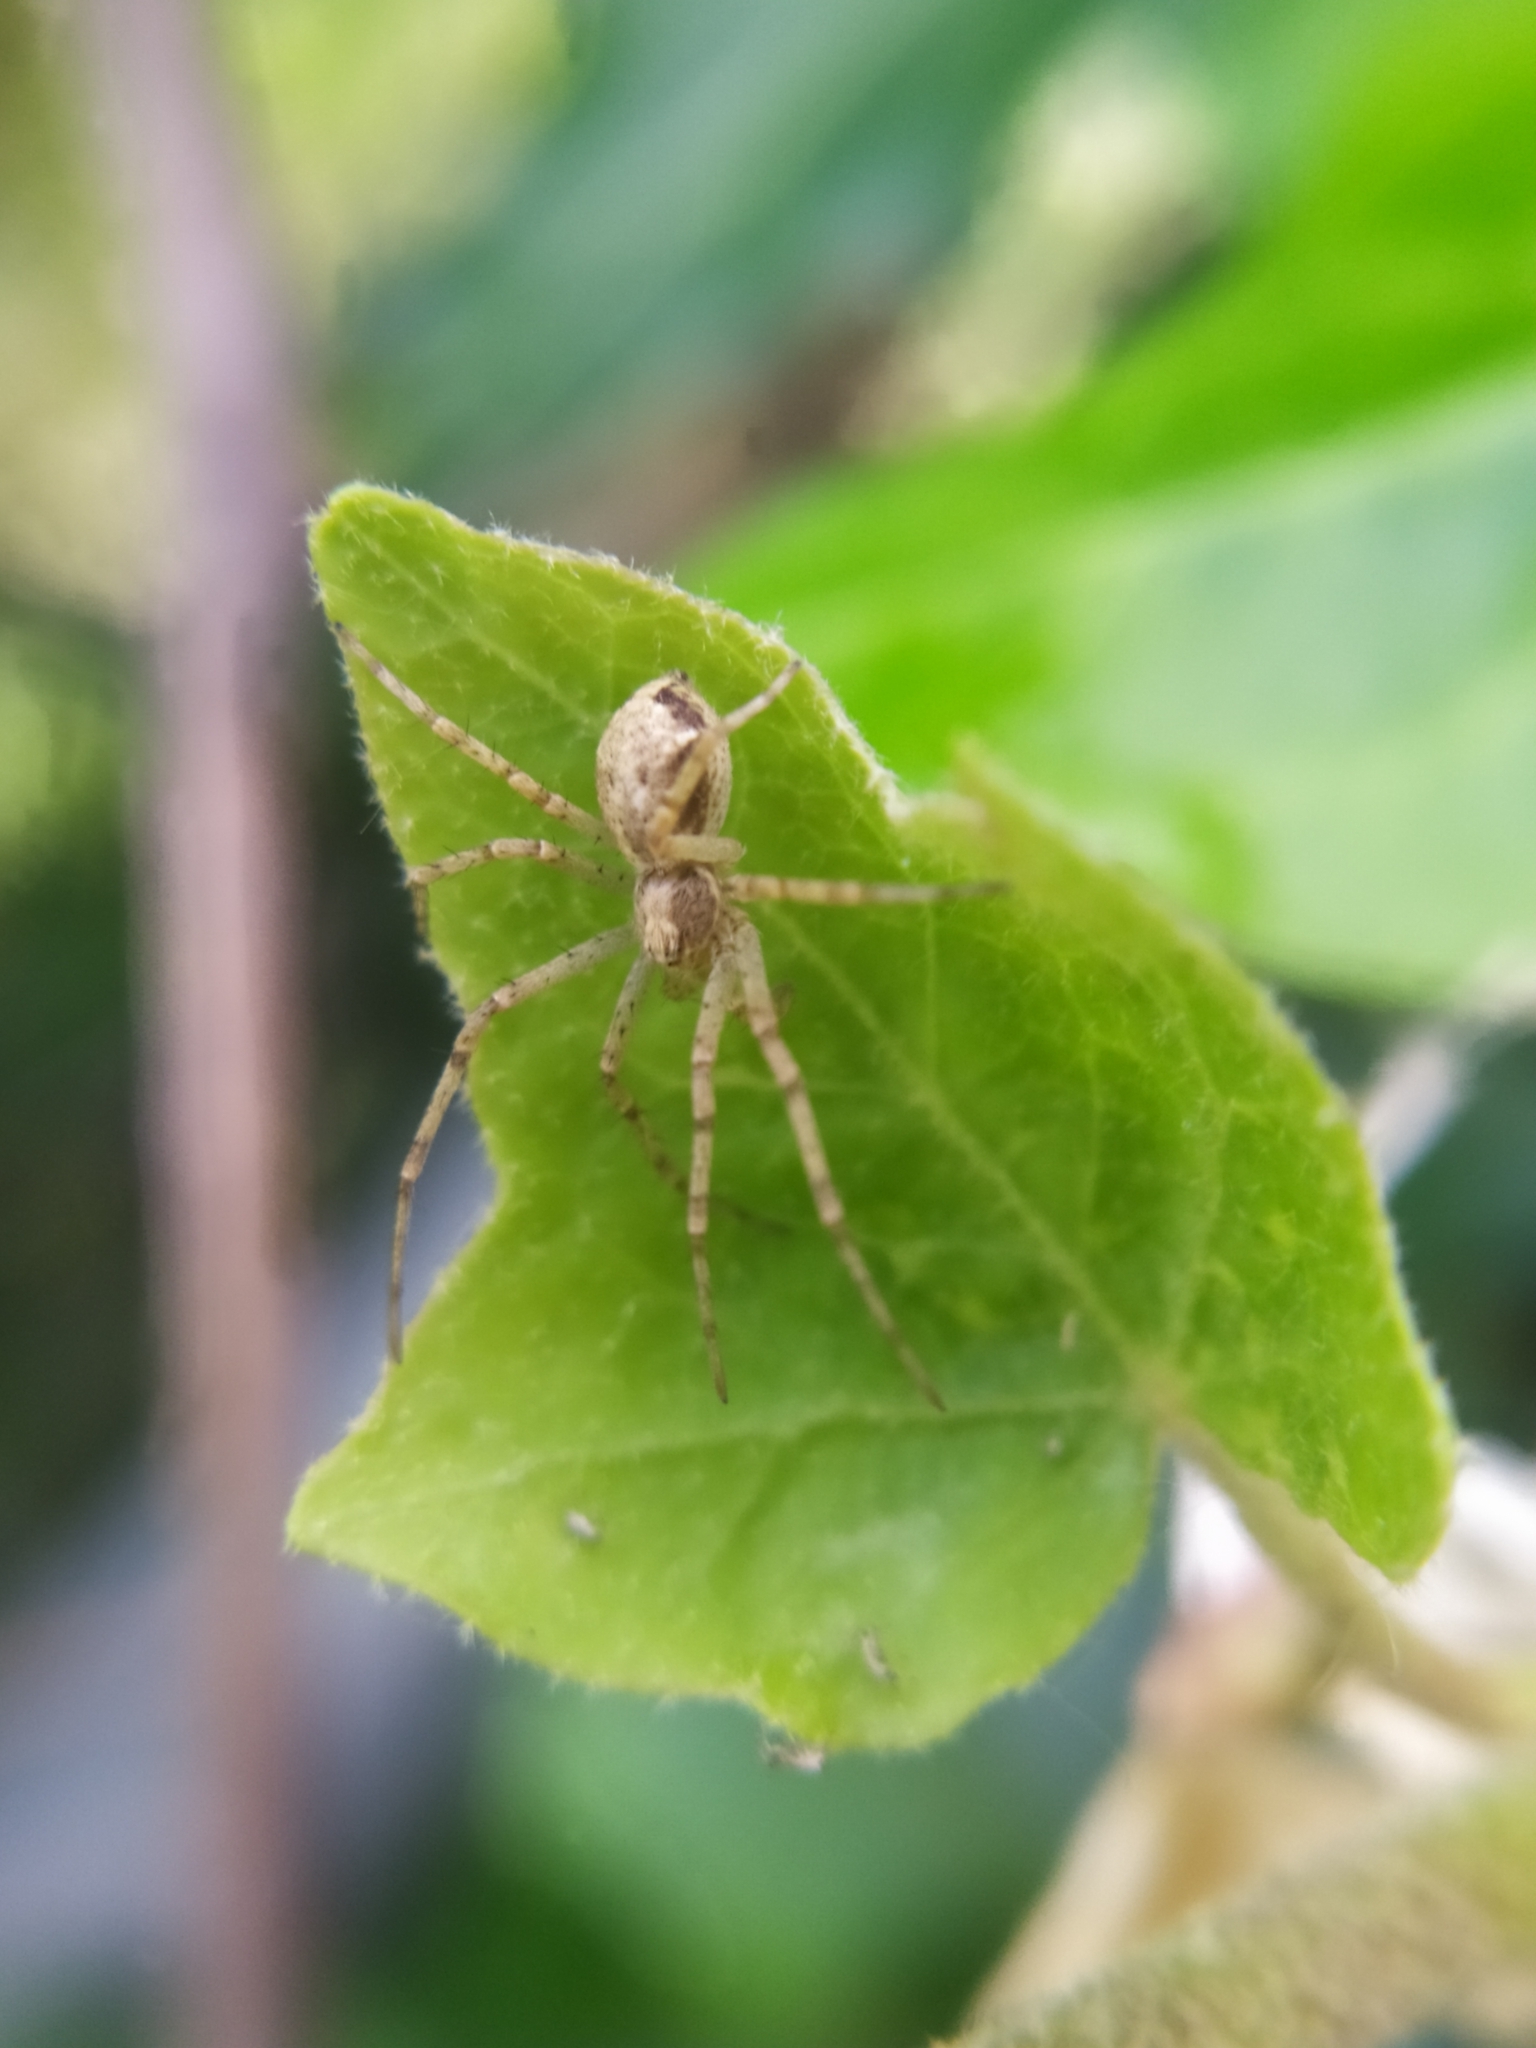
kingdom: Animalia
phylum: Arthropoda
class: Arachnida
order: Araneae
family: Philodromidae
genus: Philodromus
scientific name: Philodromus dispar
